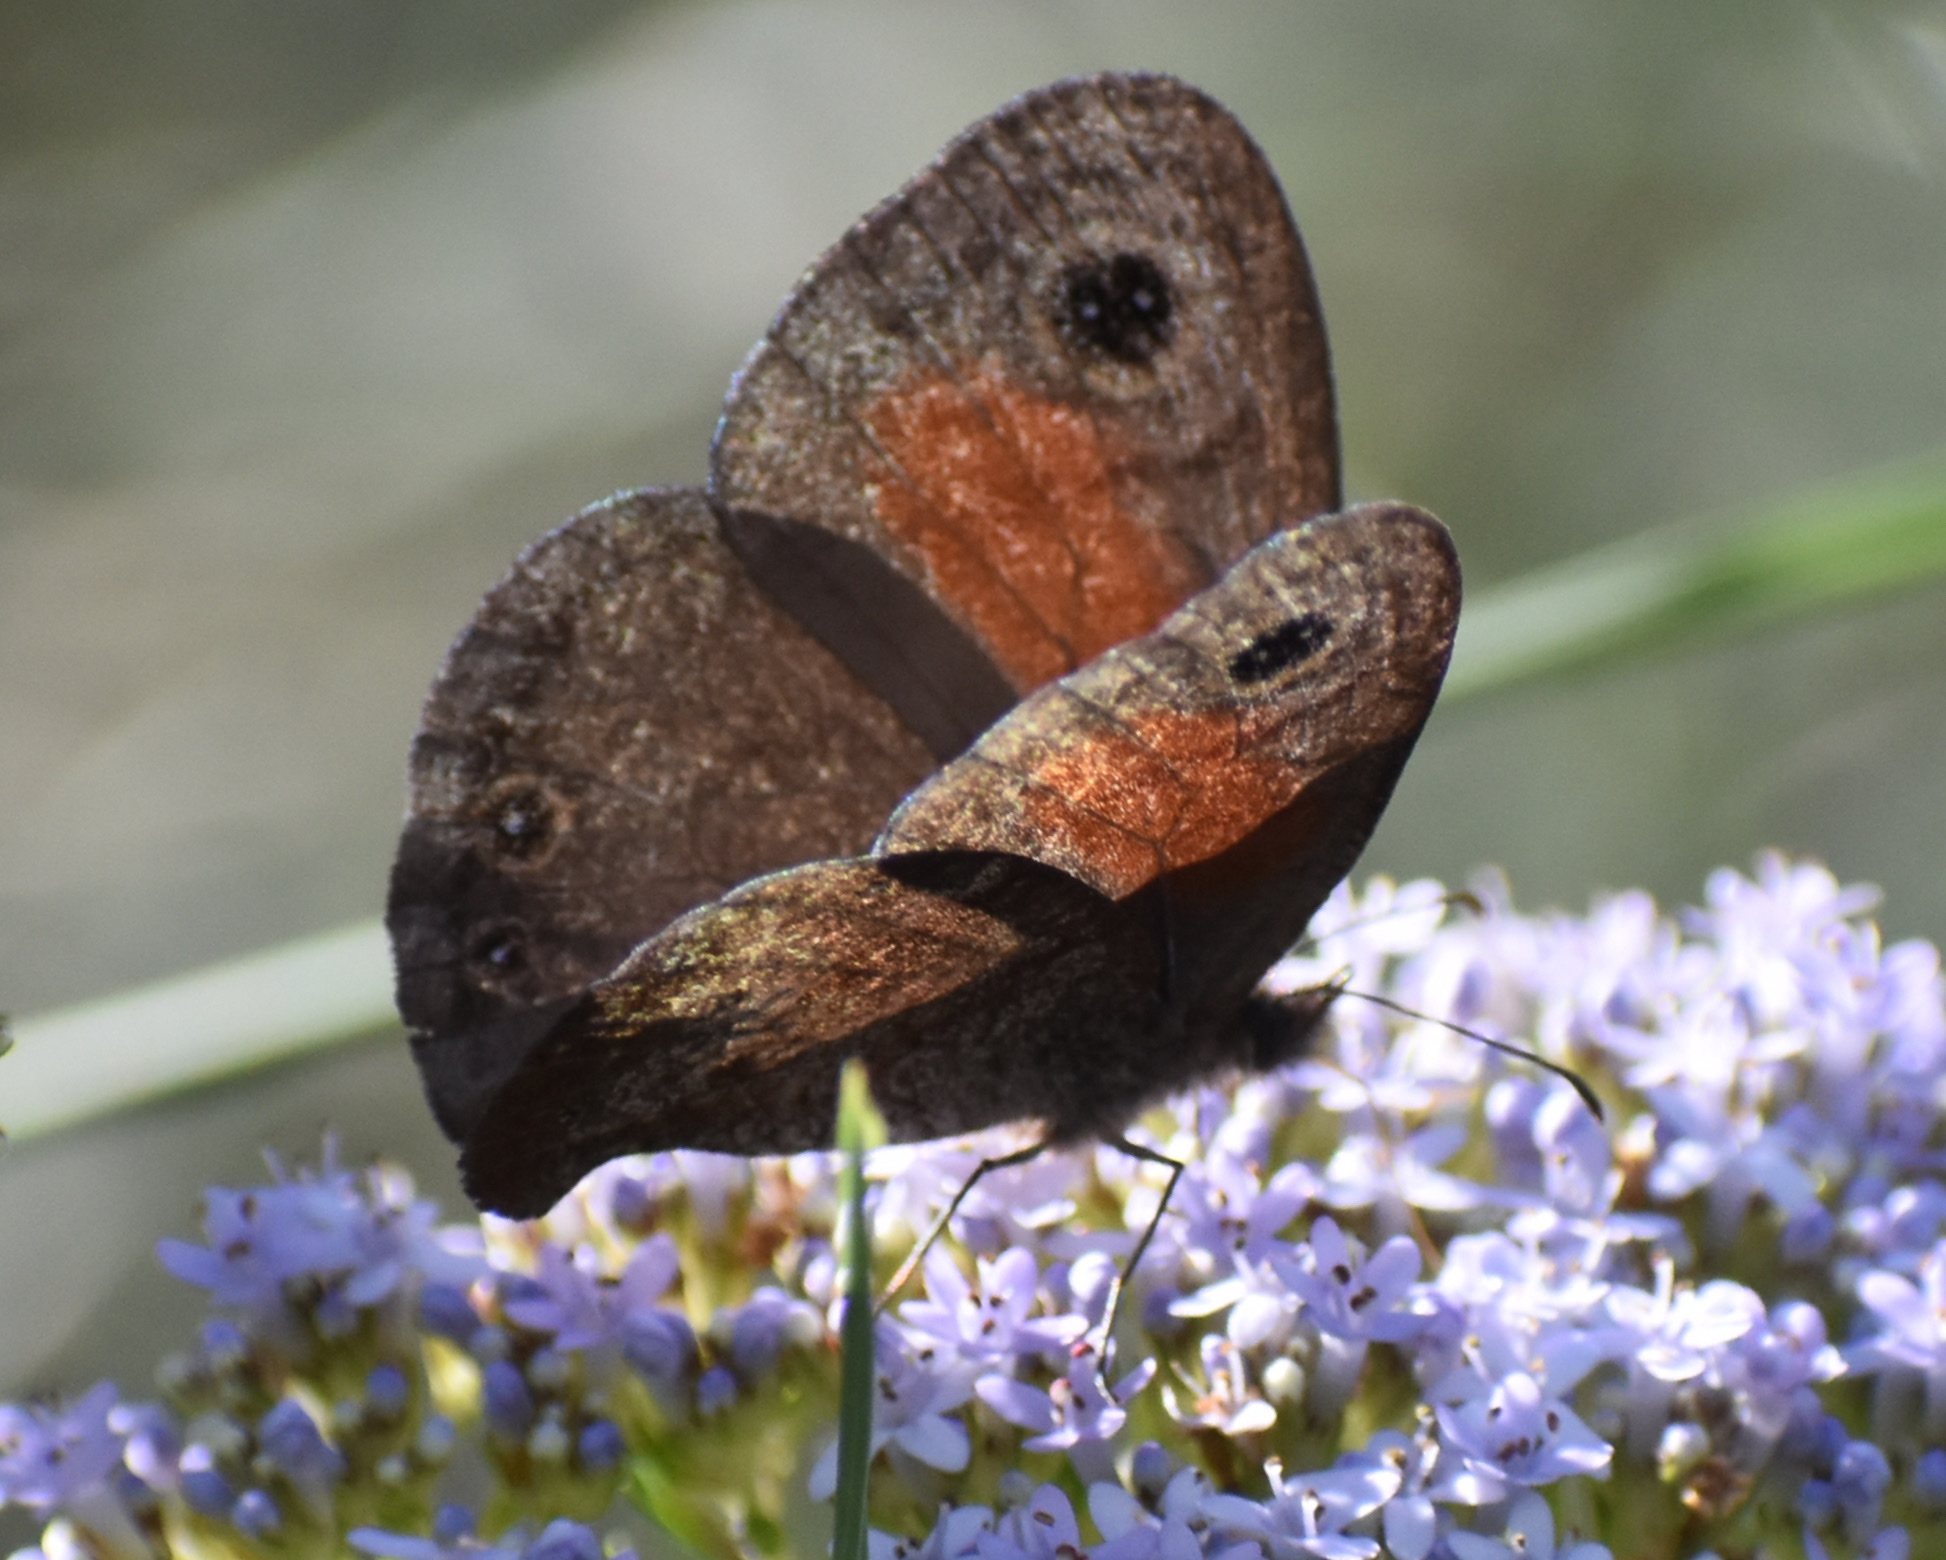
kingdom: Animalia
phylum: Arthropoda
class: Insecta
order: Lepidoptera
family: Nymphalidae
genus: Cassionympha
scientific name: Cassionympha cassius
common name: Rainforest brown
